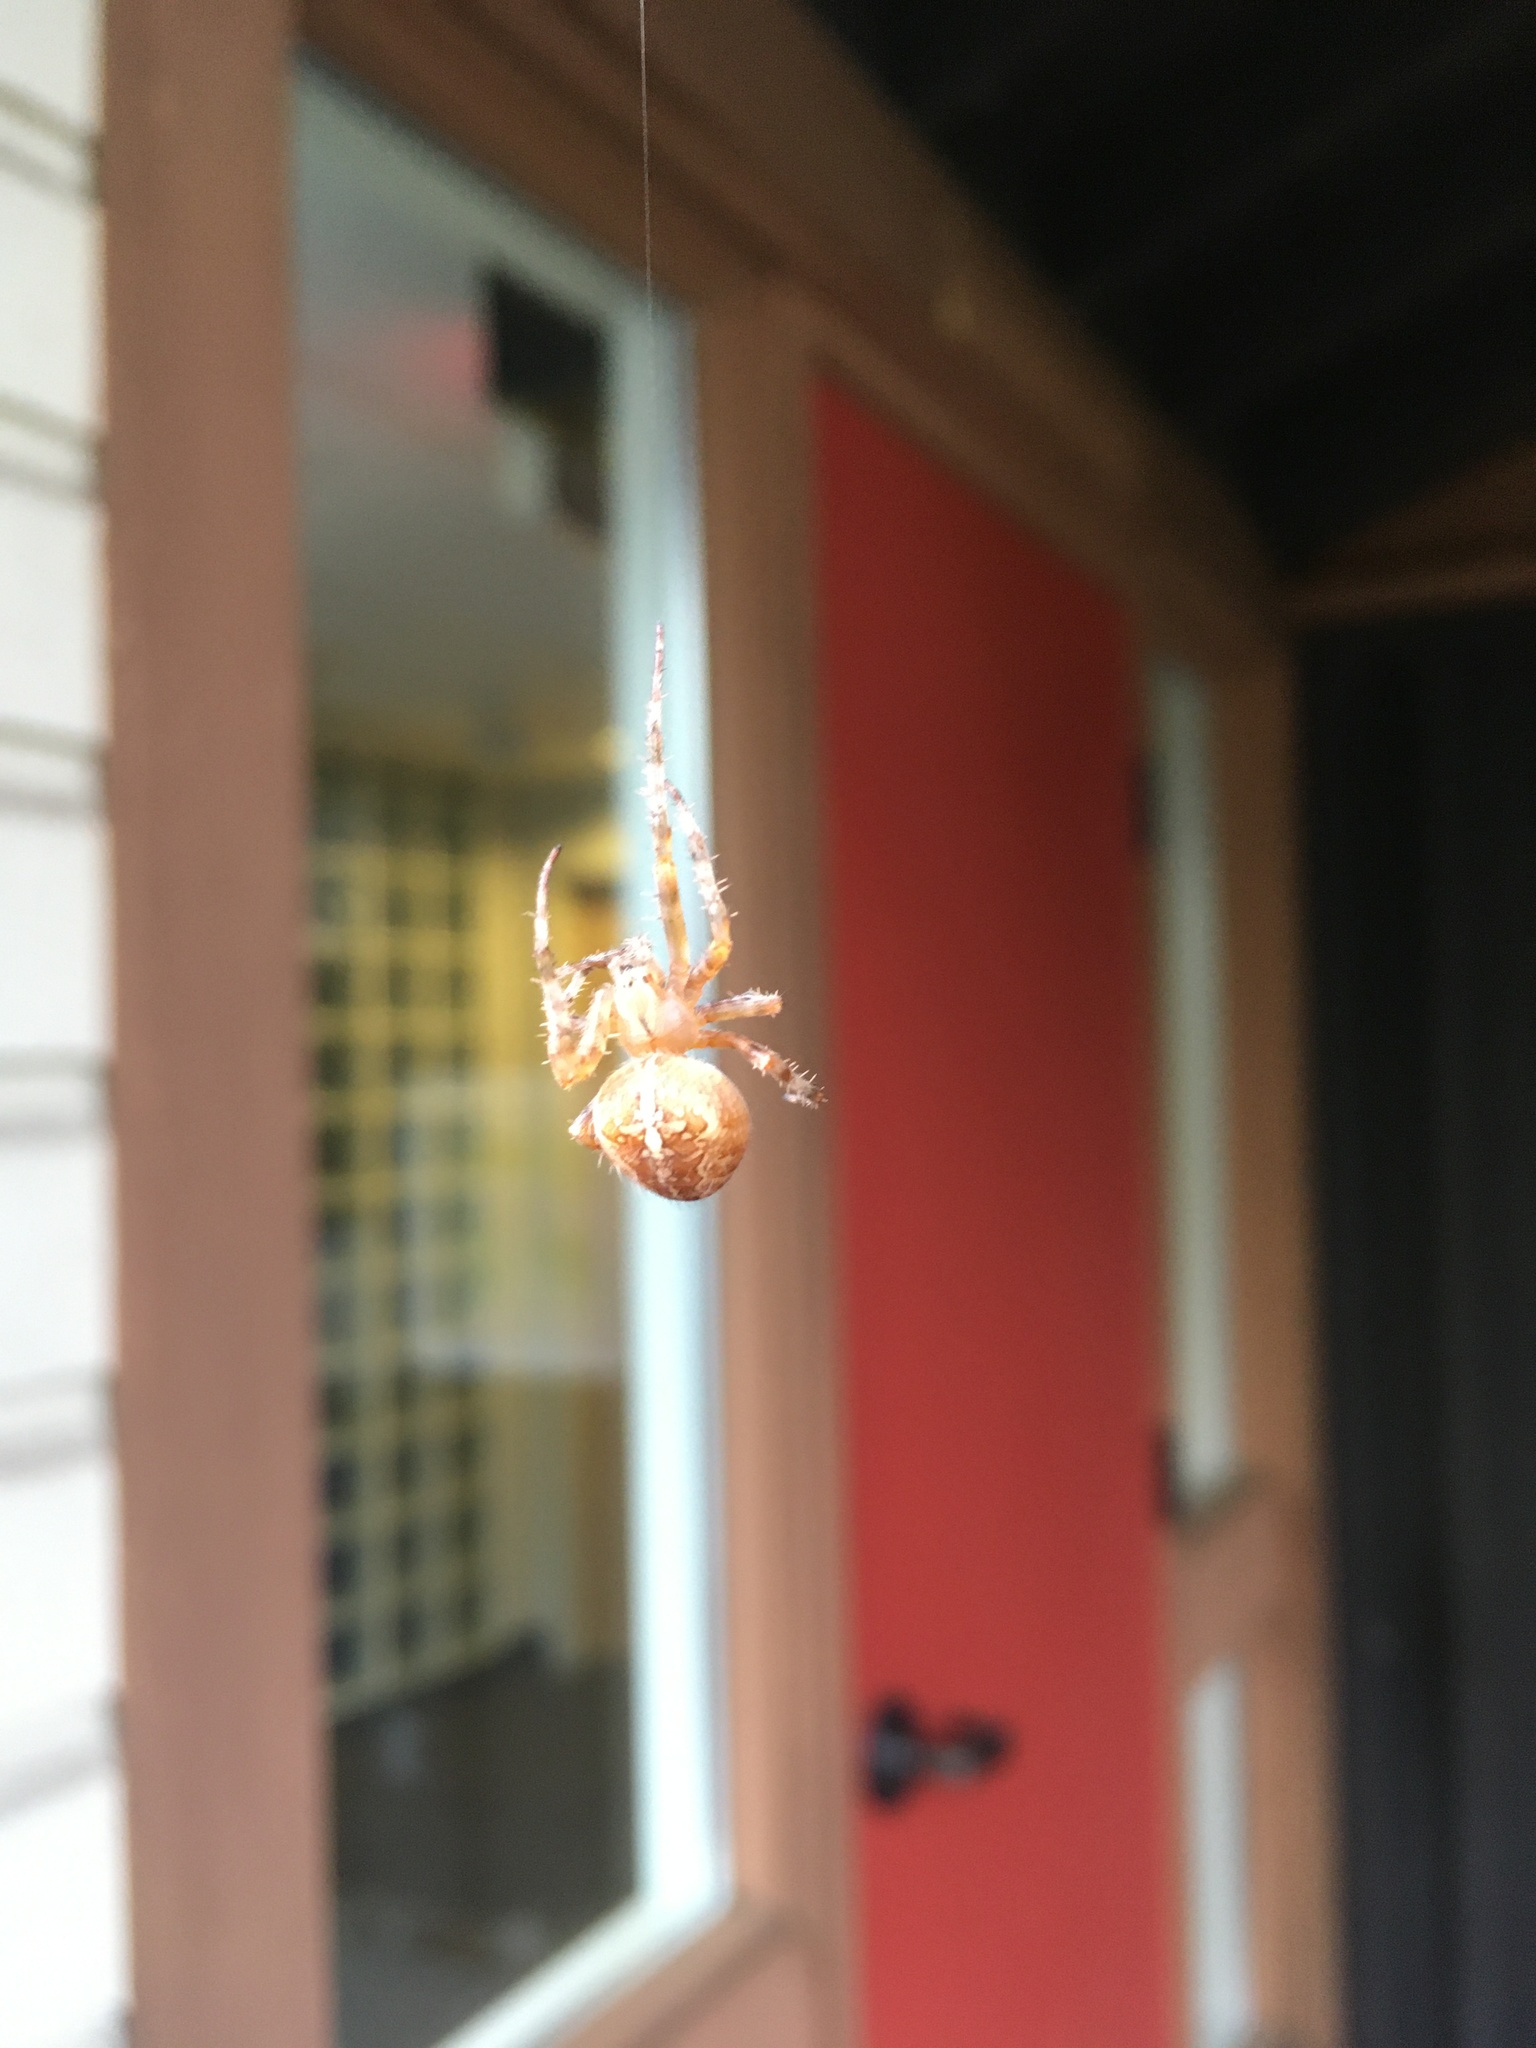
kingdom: Animalia
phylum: Arthropoda
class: Arachnida
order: Araneae
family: Araneidae
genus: Araneus
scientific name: Araneus diadematus
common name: Cross orbweaver
